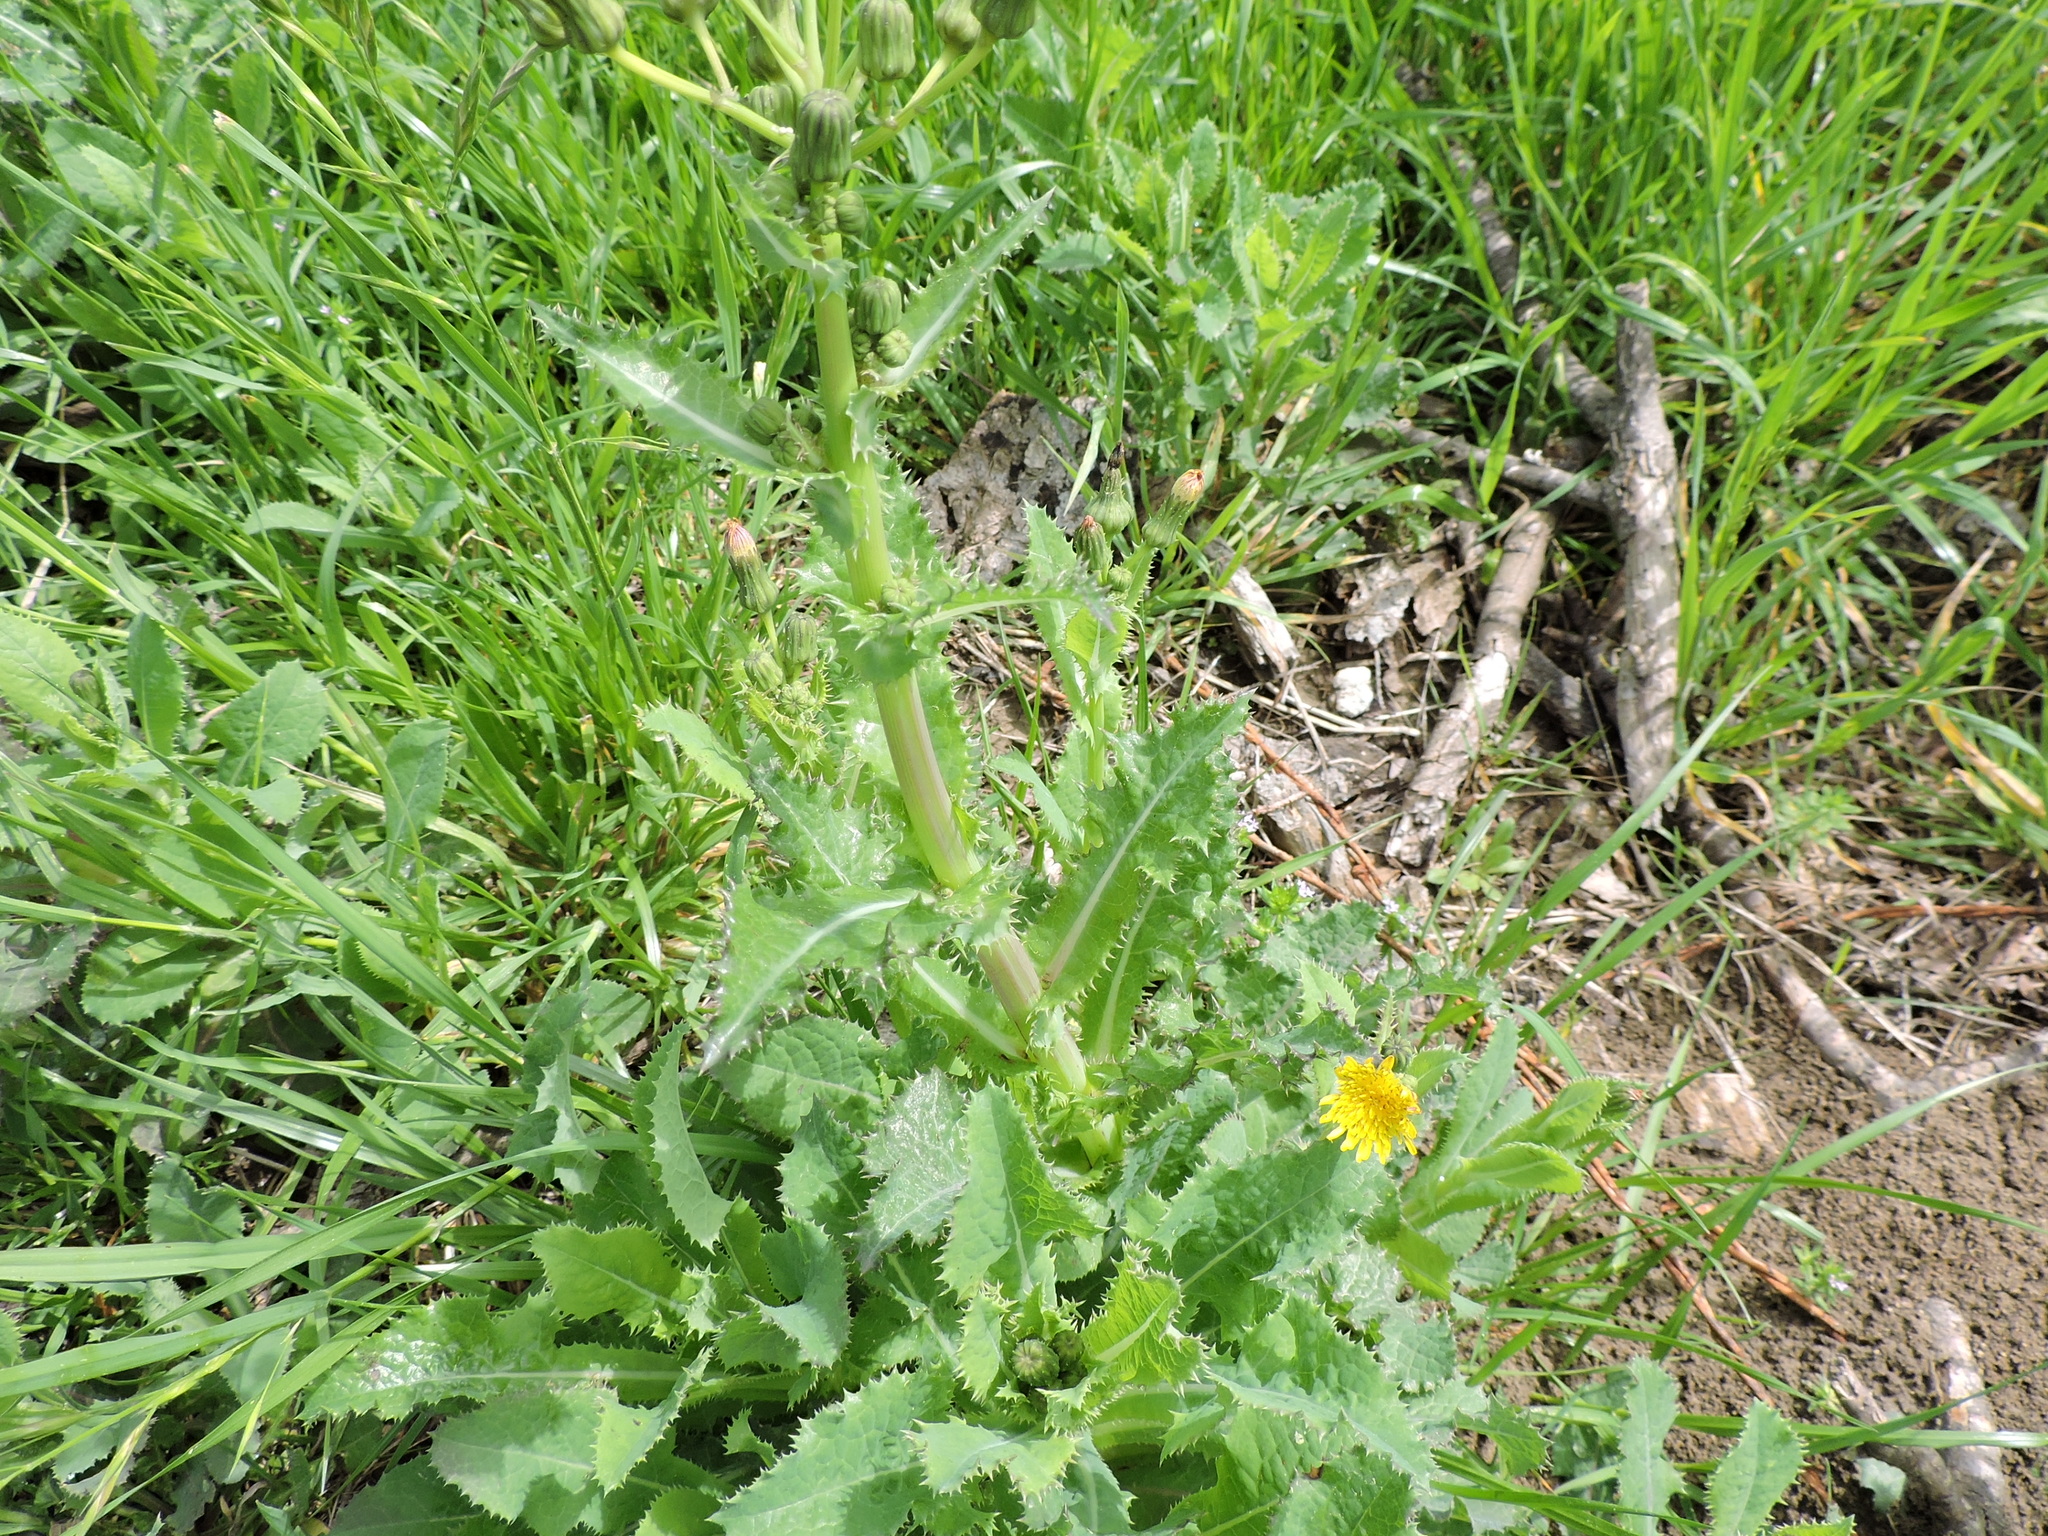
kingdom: Plantae
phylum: Tracheophyta
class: Magnoliopsida
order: Asterales
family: Asteraceae
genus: Sonchus
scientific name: Sonchus asper
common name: Prickly sow-thistle
